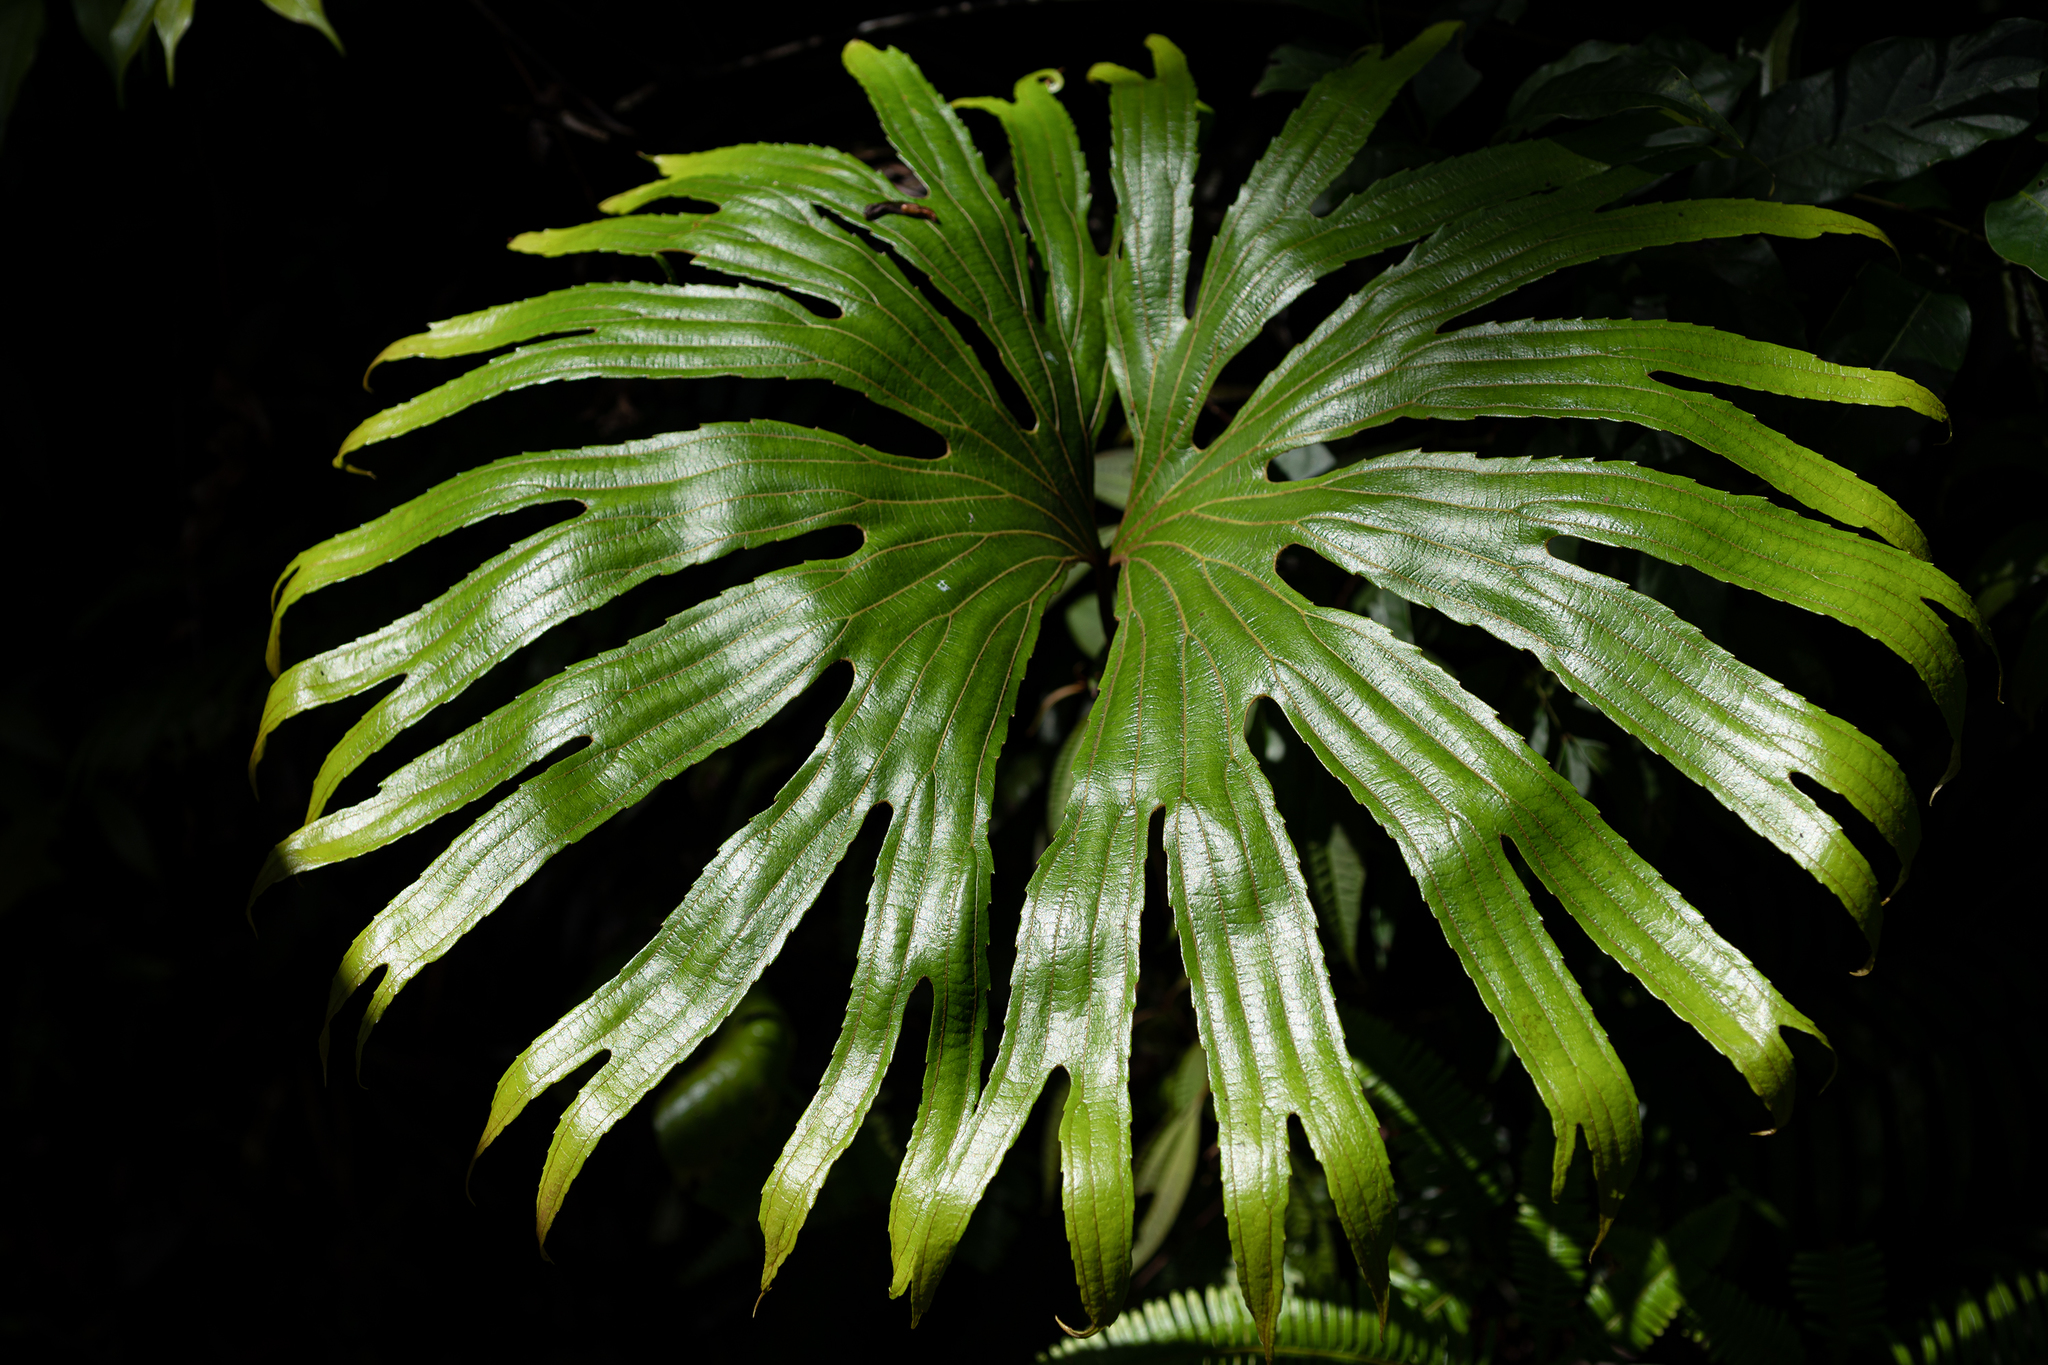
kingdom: Plantae
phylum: Tracheophyta
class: Polypodiopsida
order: Gleicheniales
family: Dipteridaceae
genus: Dipteris
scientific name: Dipteris conjugata
